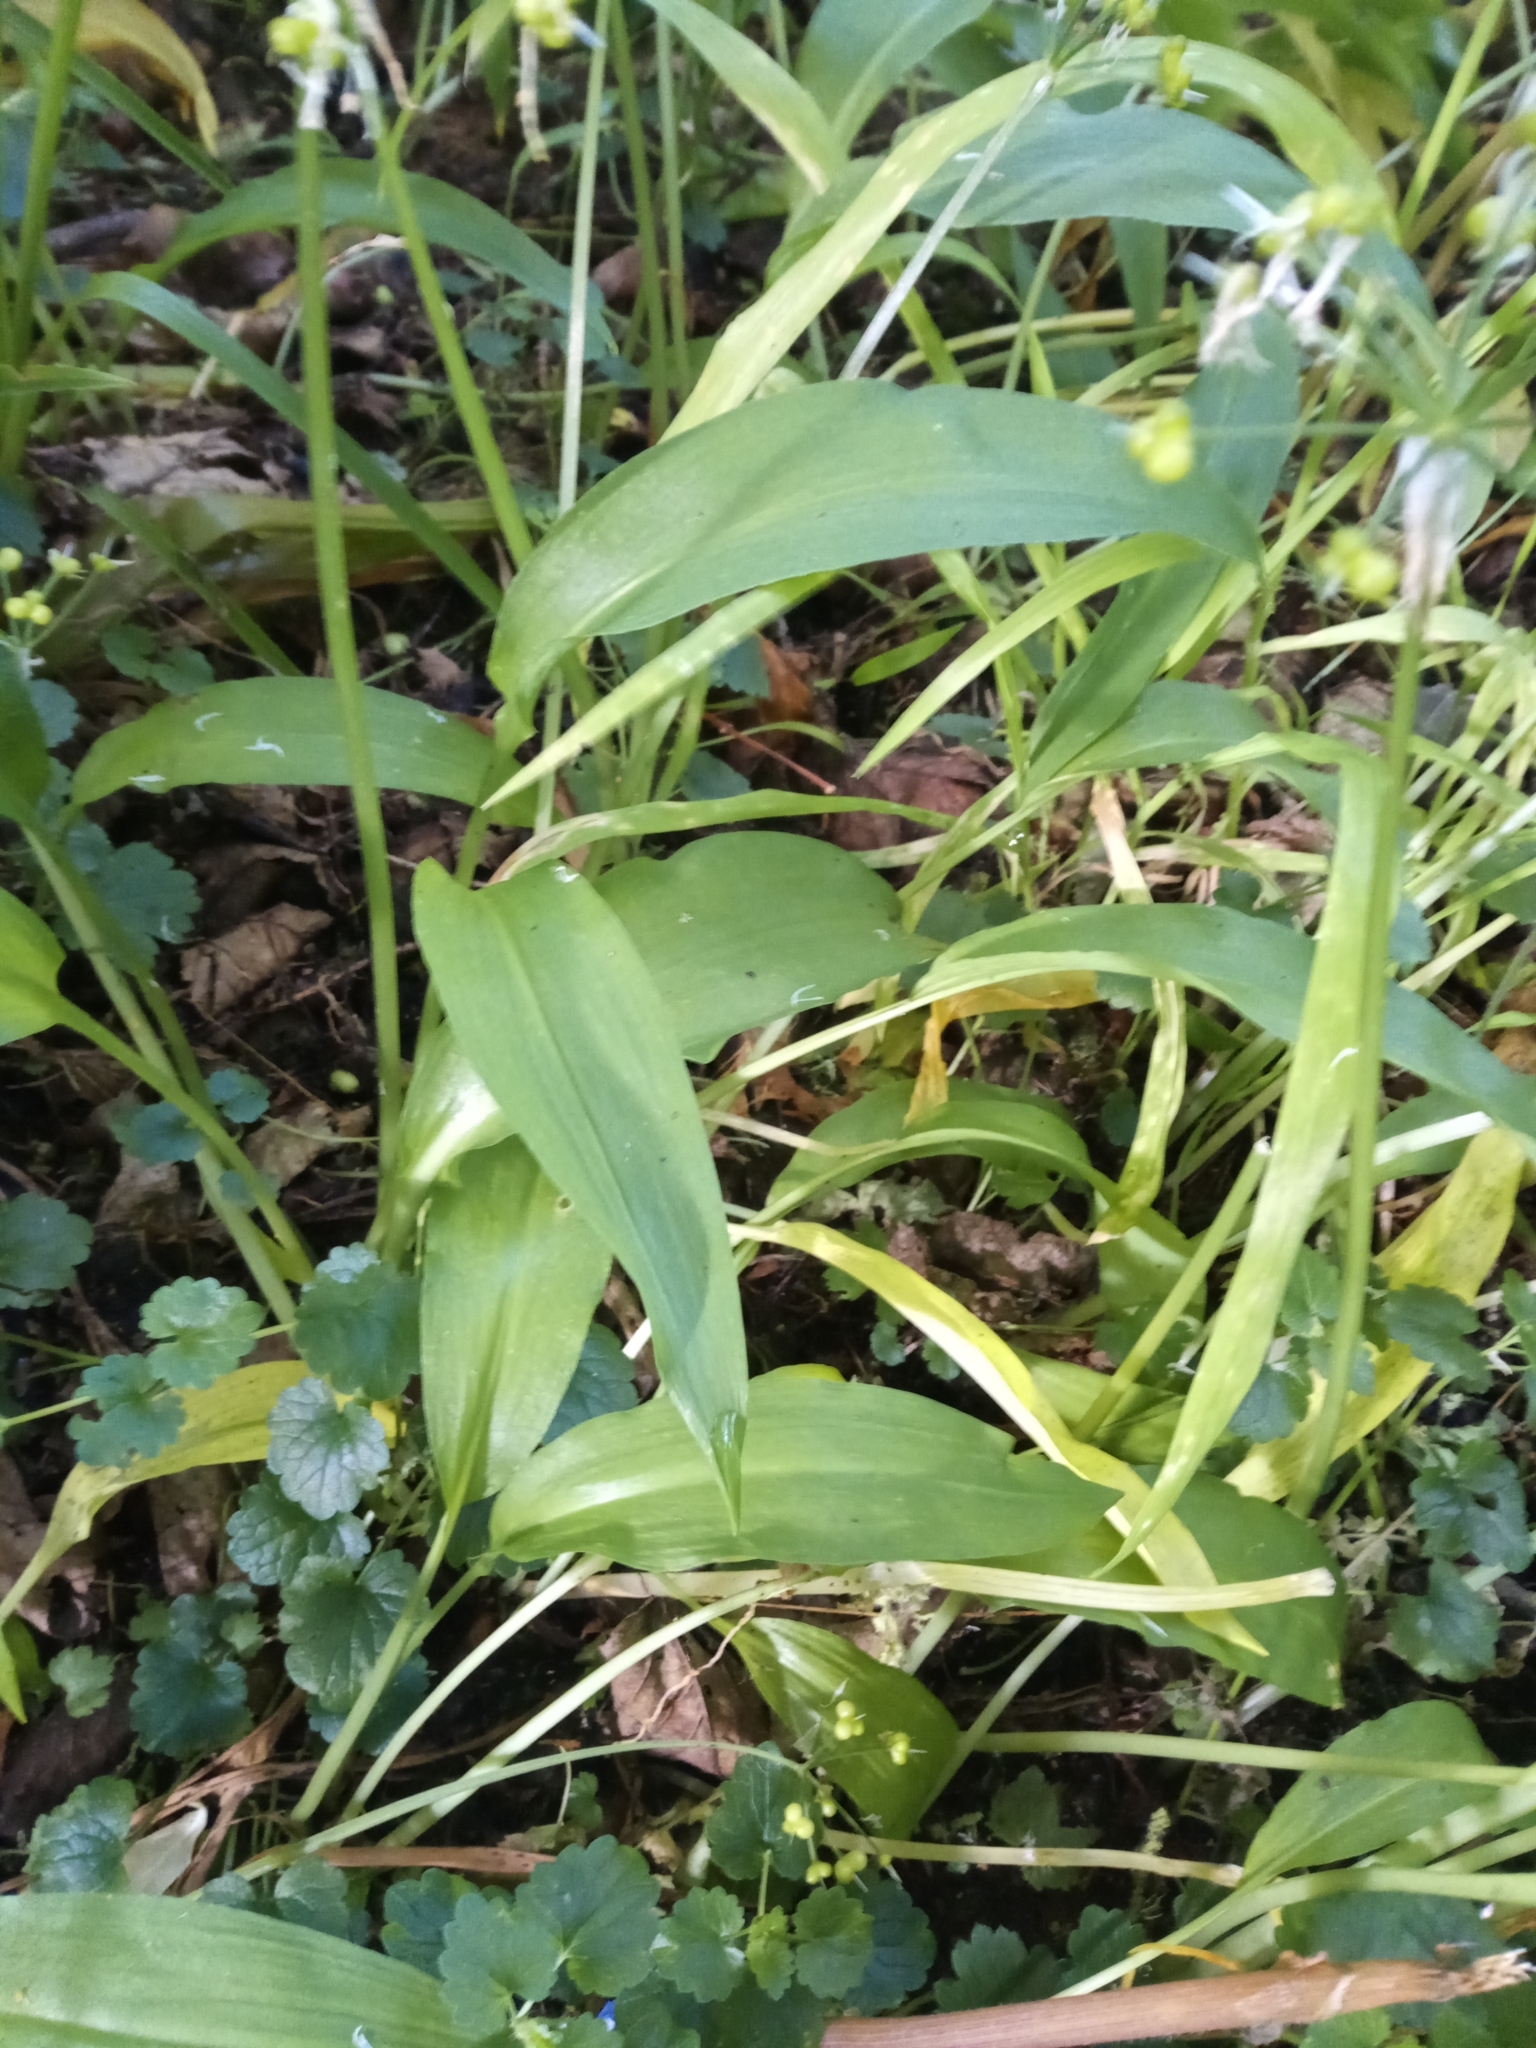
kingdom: Plantae
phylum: Tracheophyta
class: Liliopsida
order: Asparagales
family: Amaryllidaceae
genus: Allium
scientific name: Allium ursinum
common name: Ramsons
